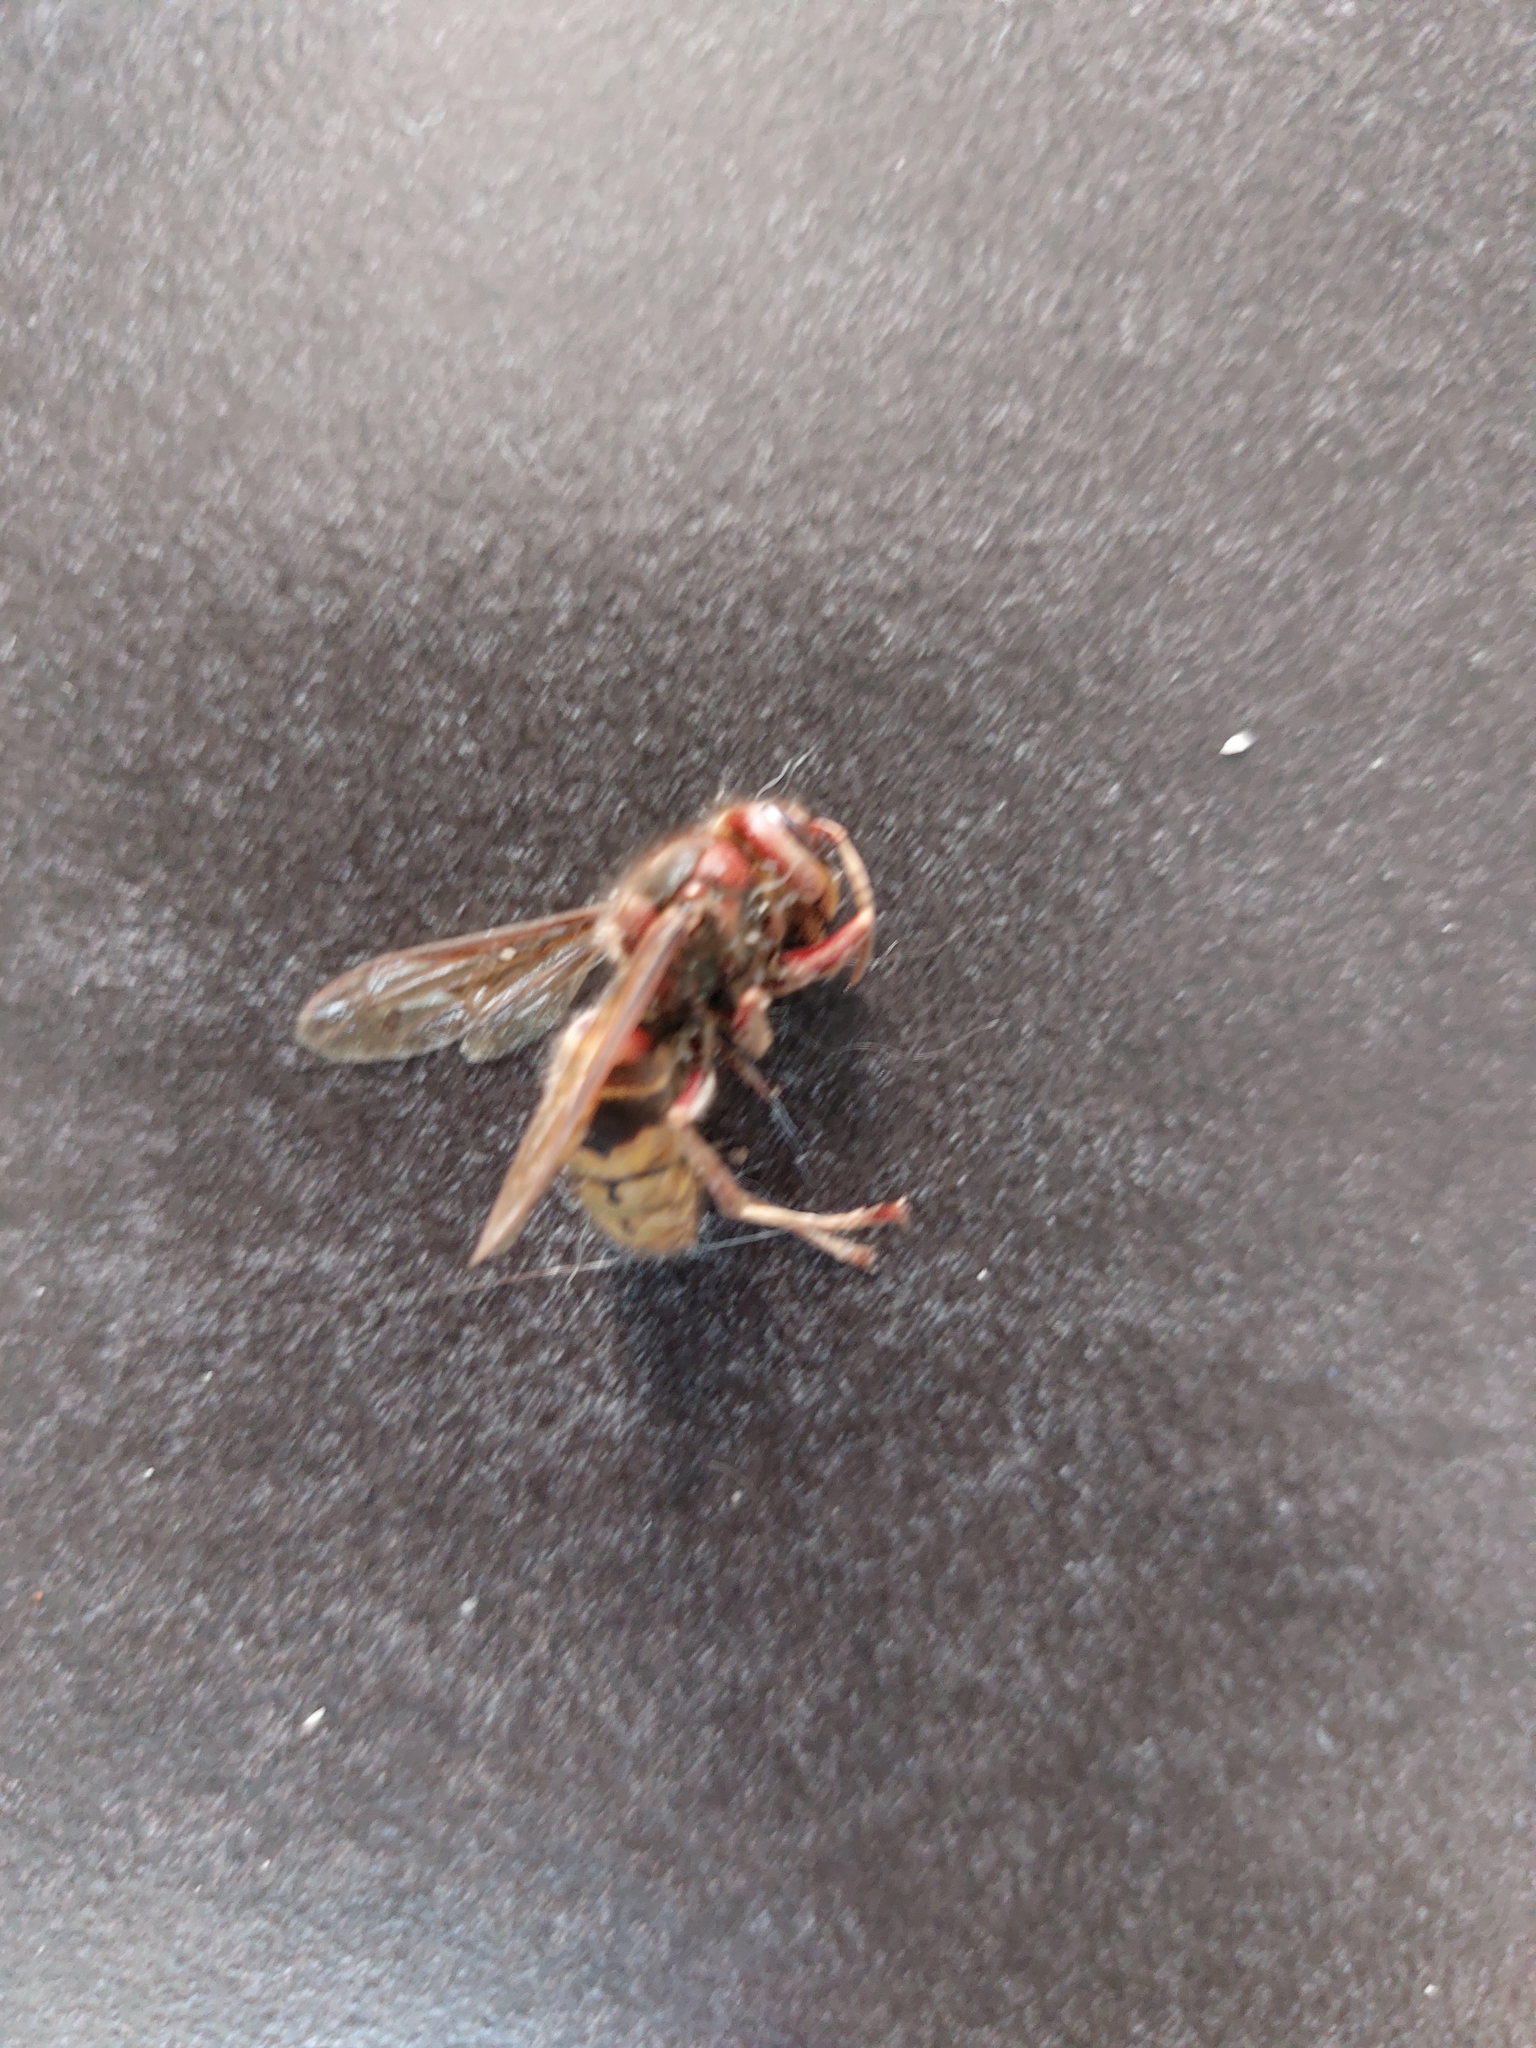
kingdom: Animalia
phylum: Arthropoda
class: Insecta
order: Hymenoptera
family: Vespidae
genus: Vespa
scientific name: Vespa crabro
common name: Hornet
